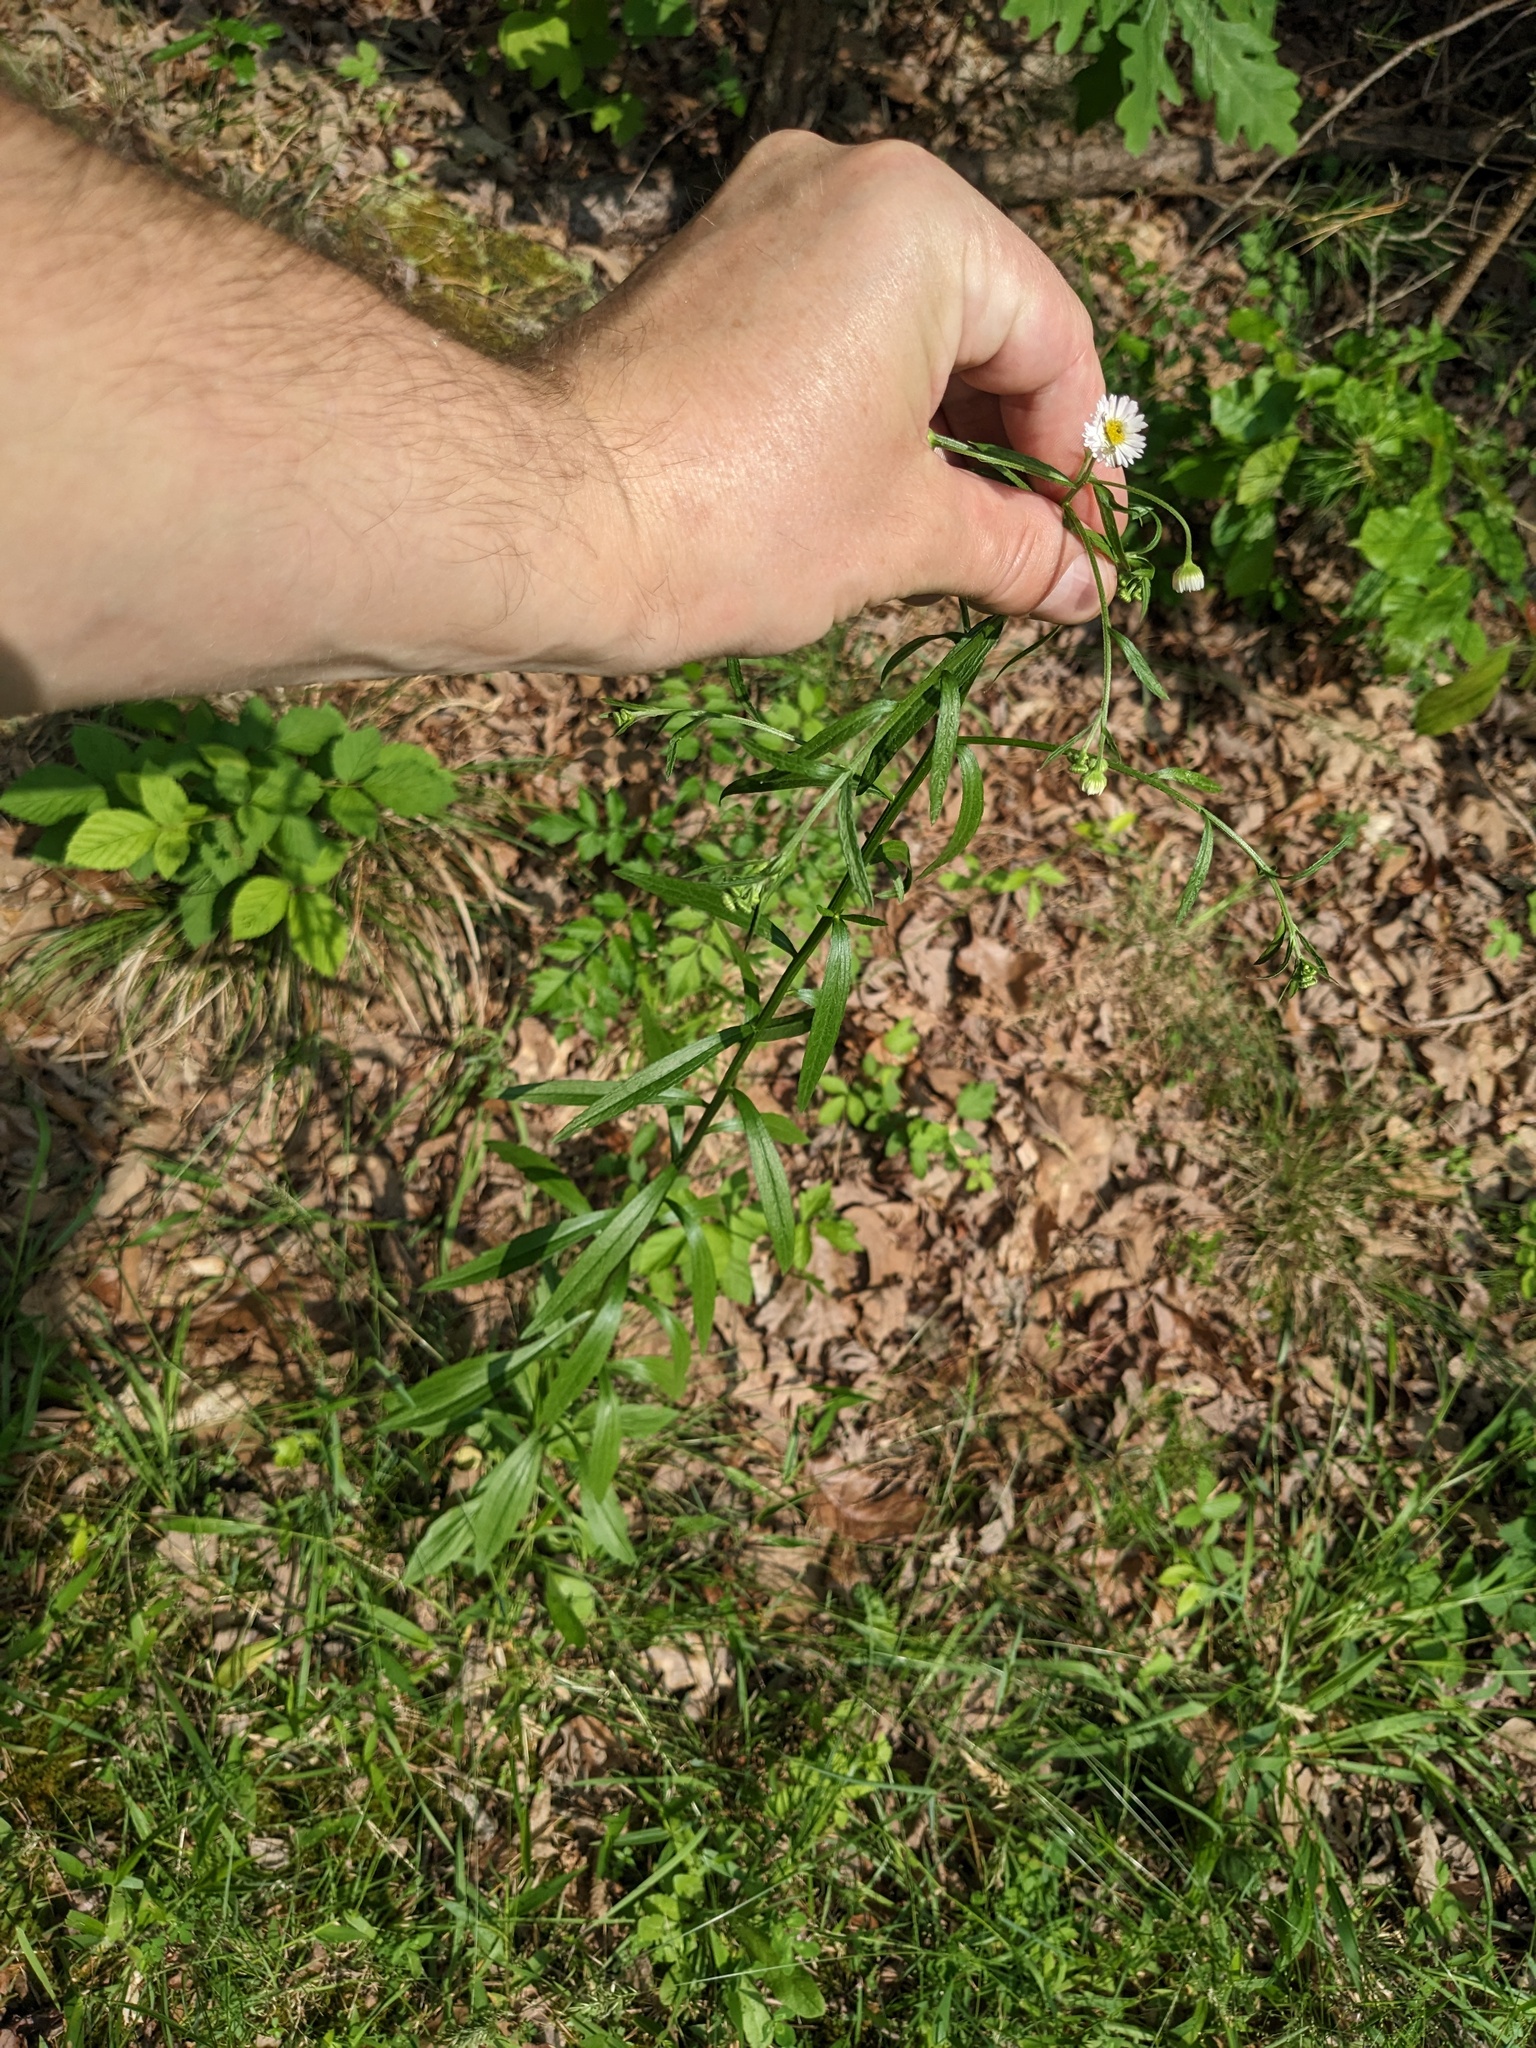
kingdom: Plantae
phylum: Tracheophyta
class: Magnoliopsida
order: Asterales
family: Asteraceae
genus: Erigeron
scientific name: Erigeron strigosus
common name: Common eastern fleabane
